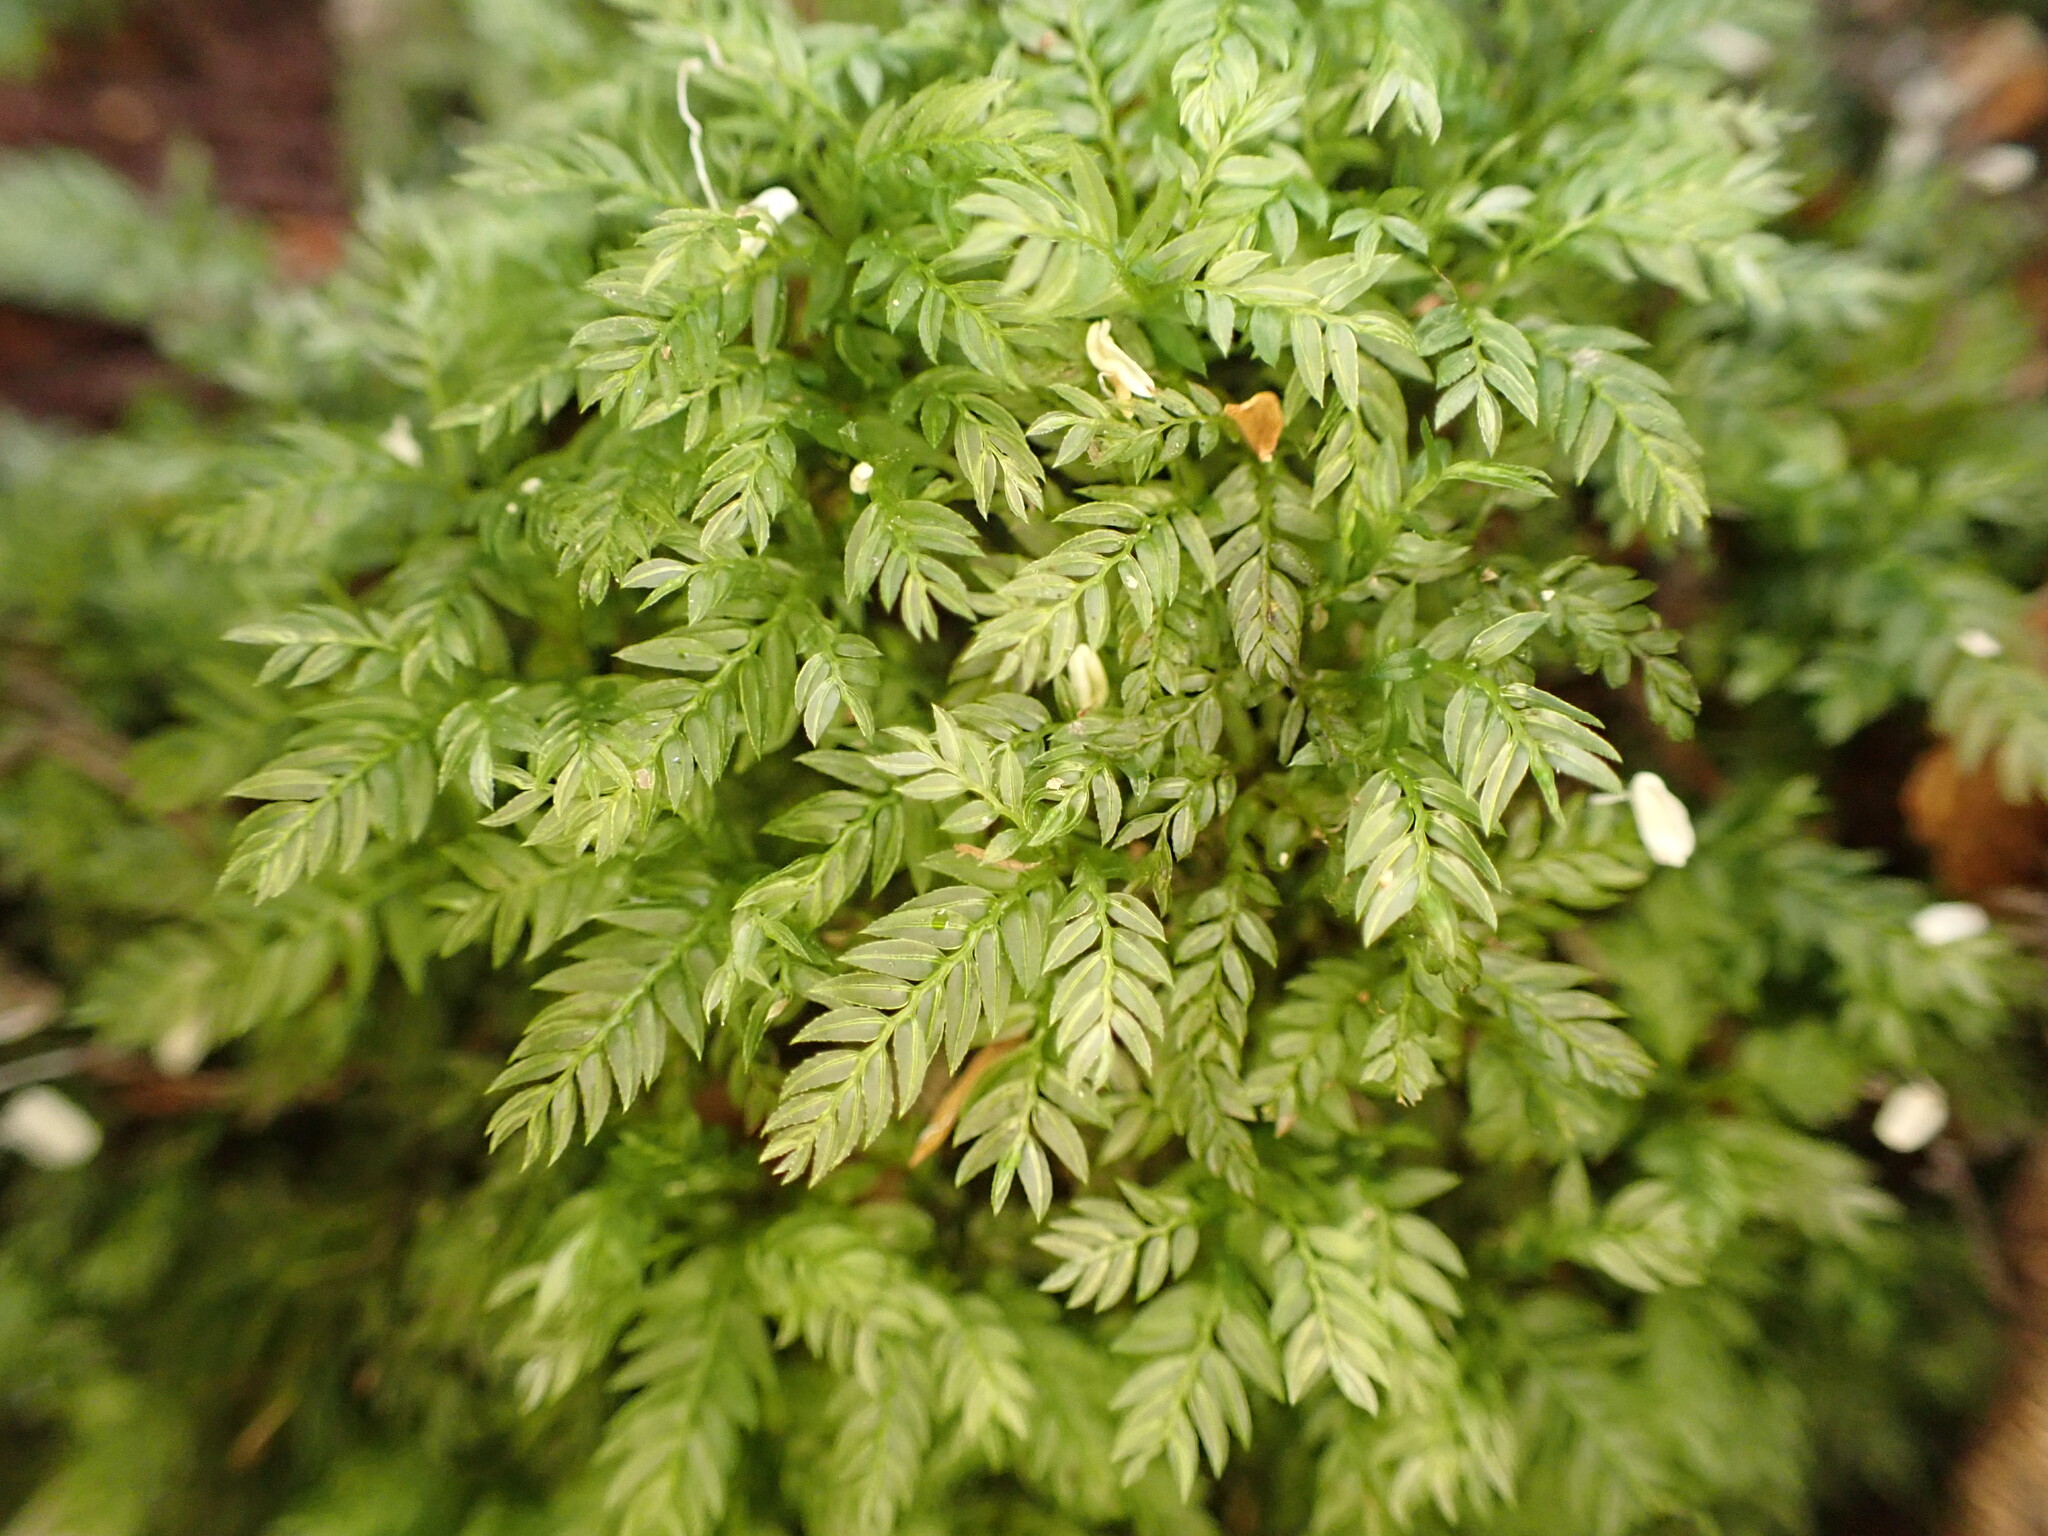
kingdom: Plantae
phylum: Bryophyta
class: Bryopsida
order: Aulacomniales
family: Aulacomniaceae
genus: Hymenodontopsis
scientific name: Hymenodontopsis bifaria
